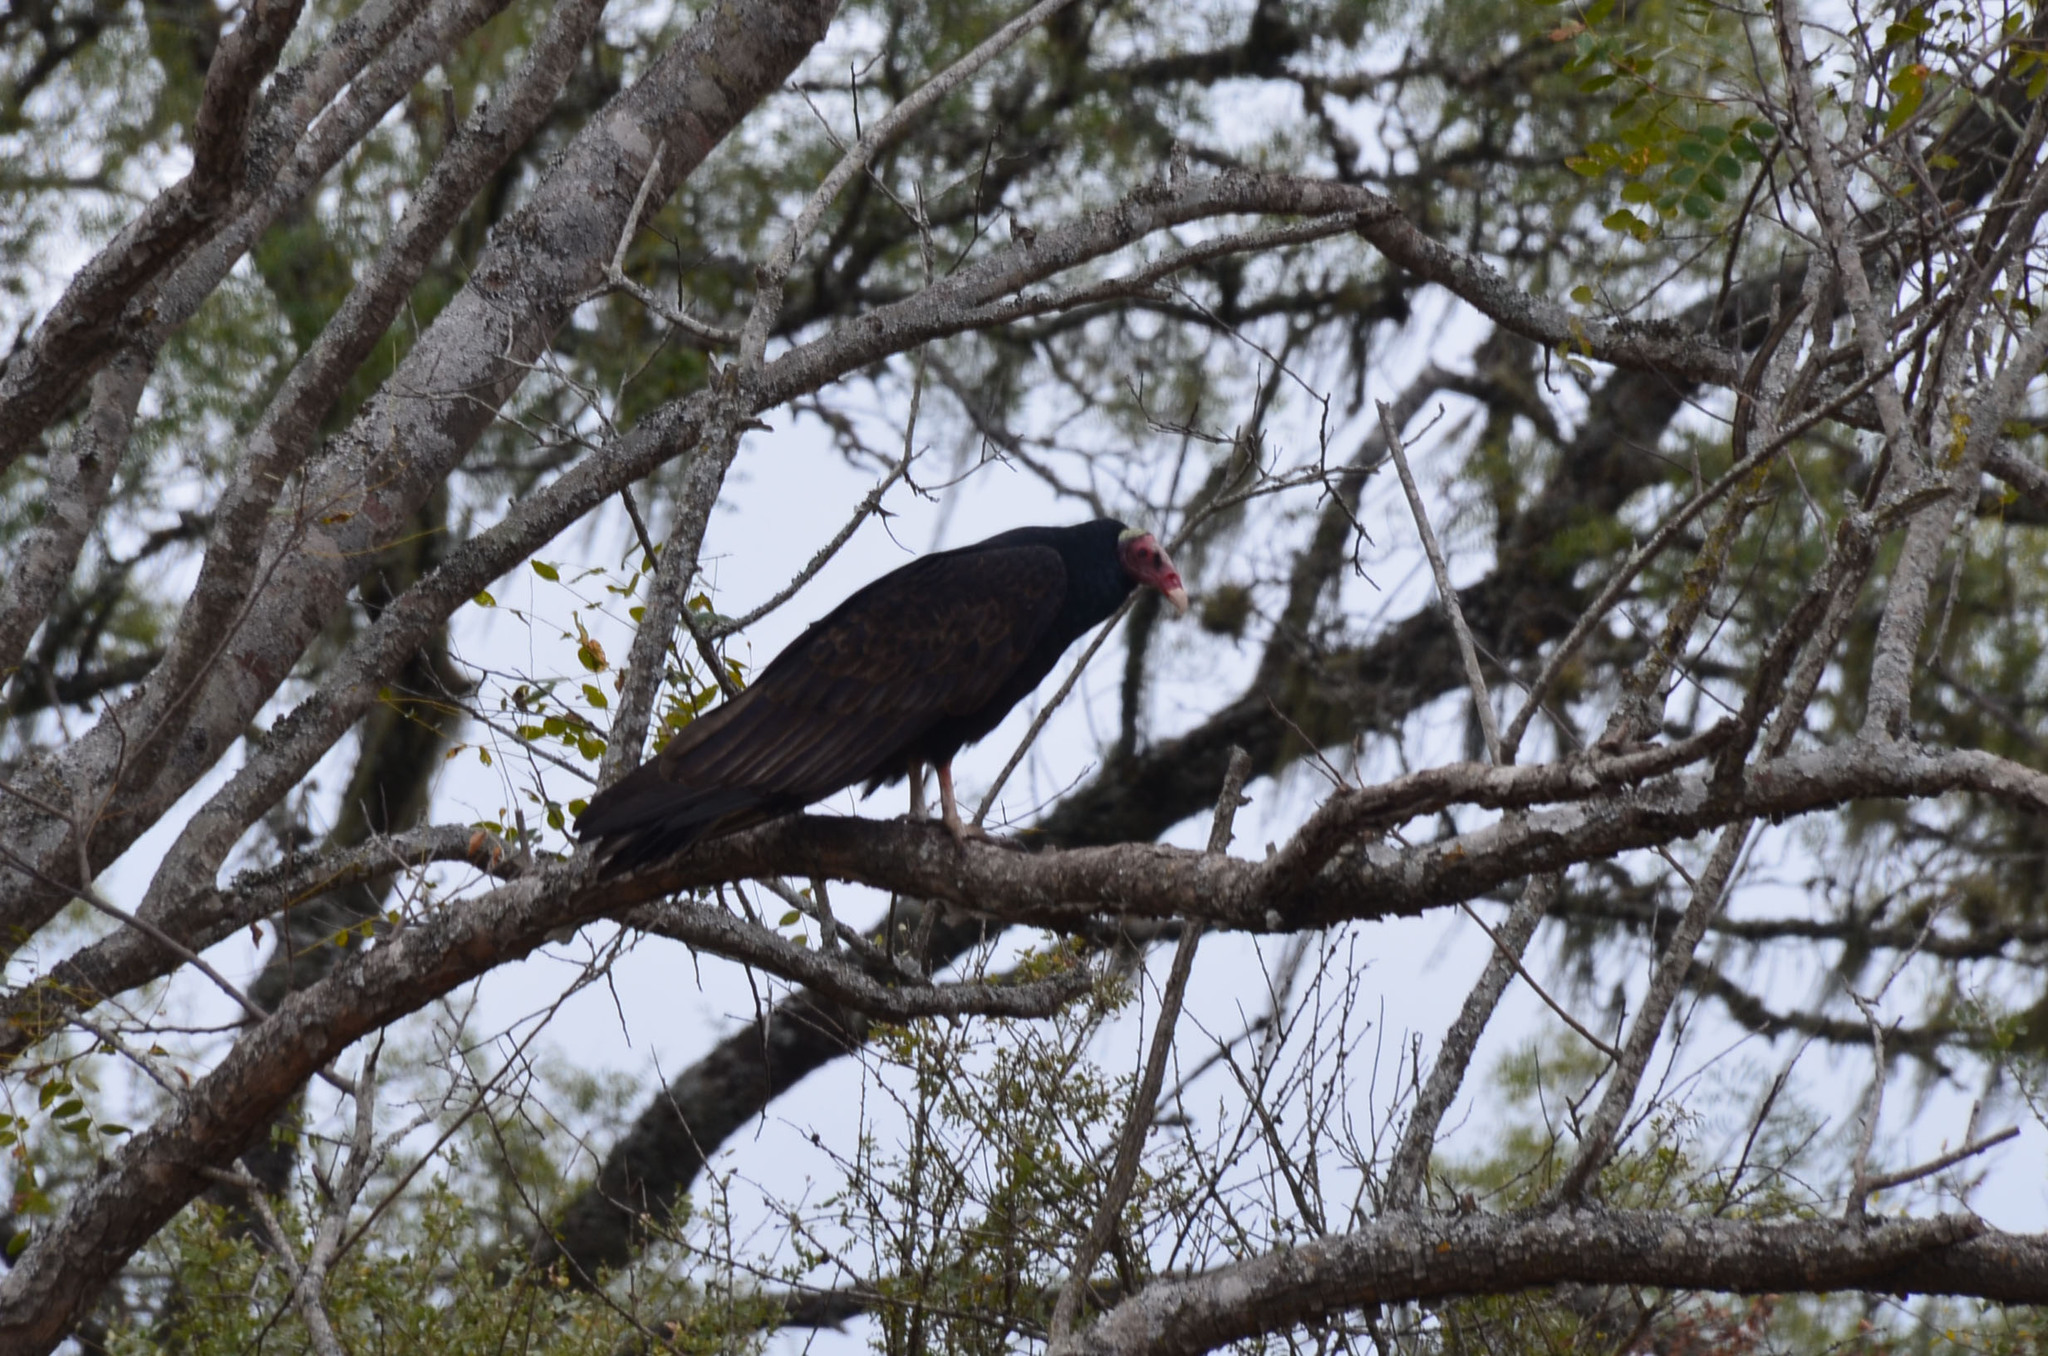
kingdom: Animalia
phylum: Chordata
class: Aves
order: Accipitriformes
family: Cathartidae
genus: Cathartes
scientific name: Cathartes aura
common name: Turkey vulture
